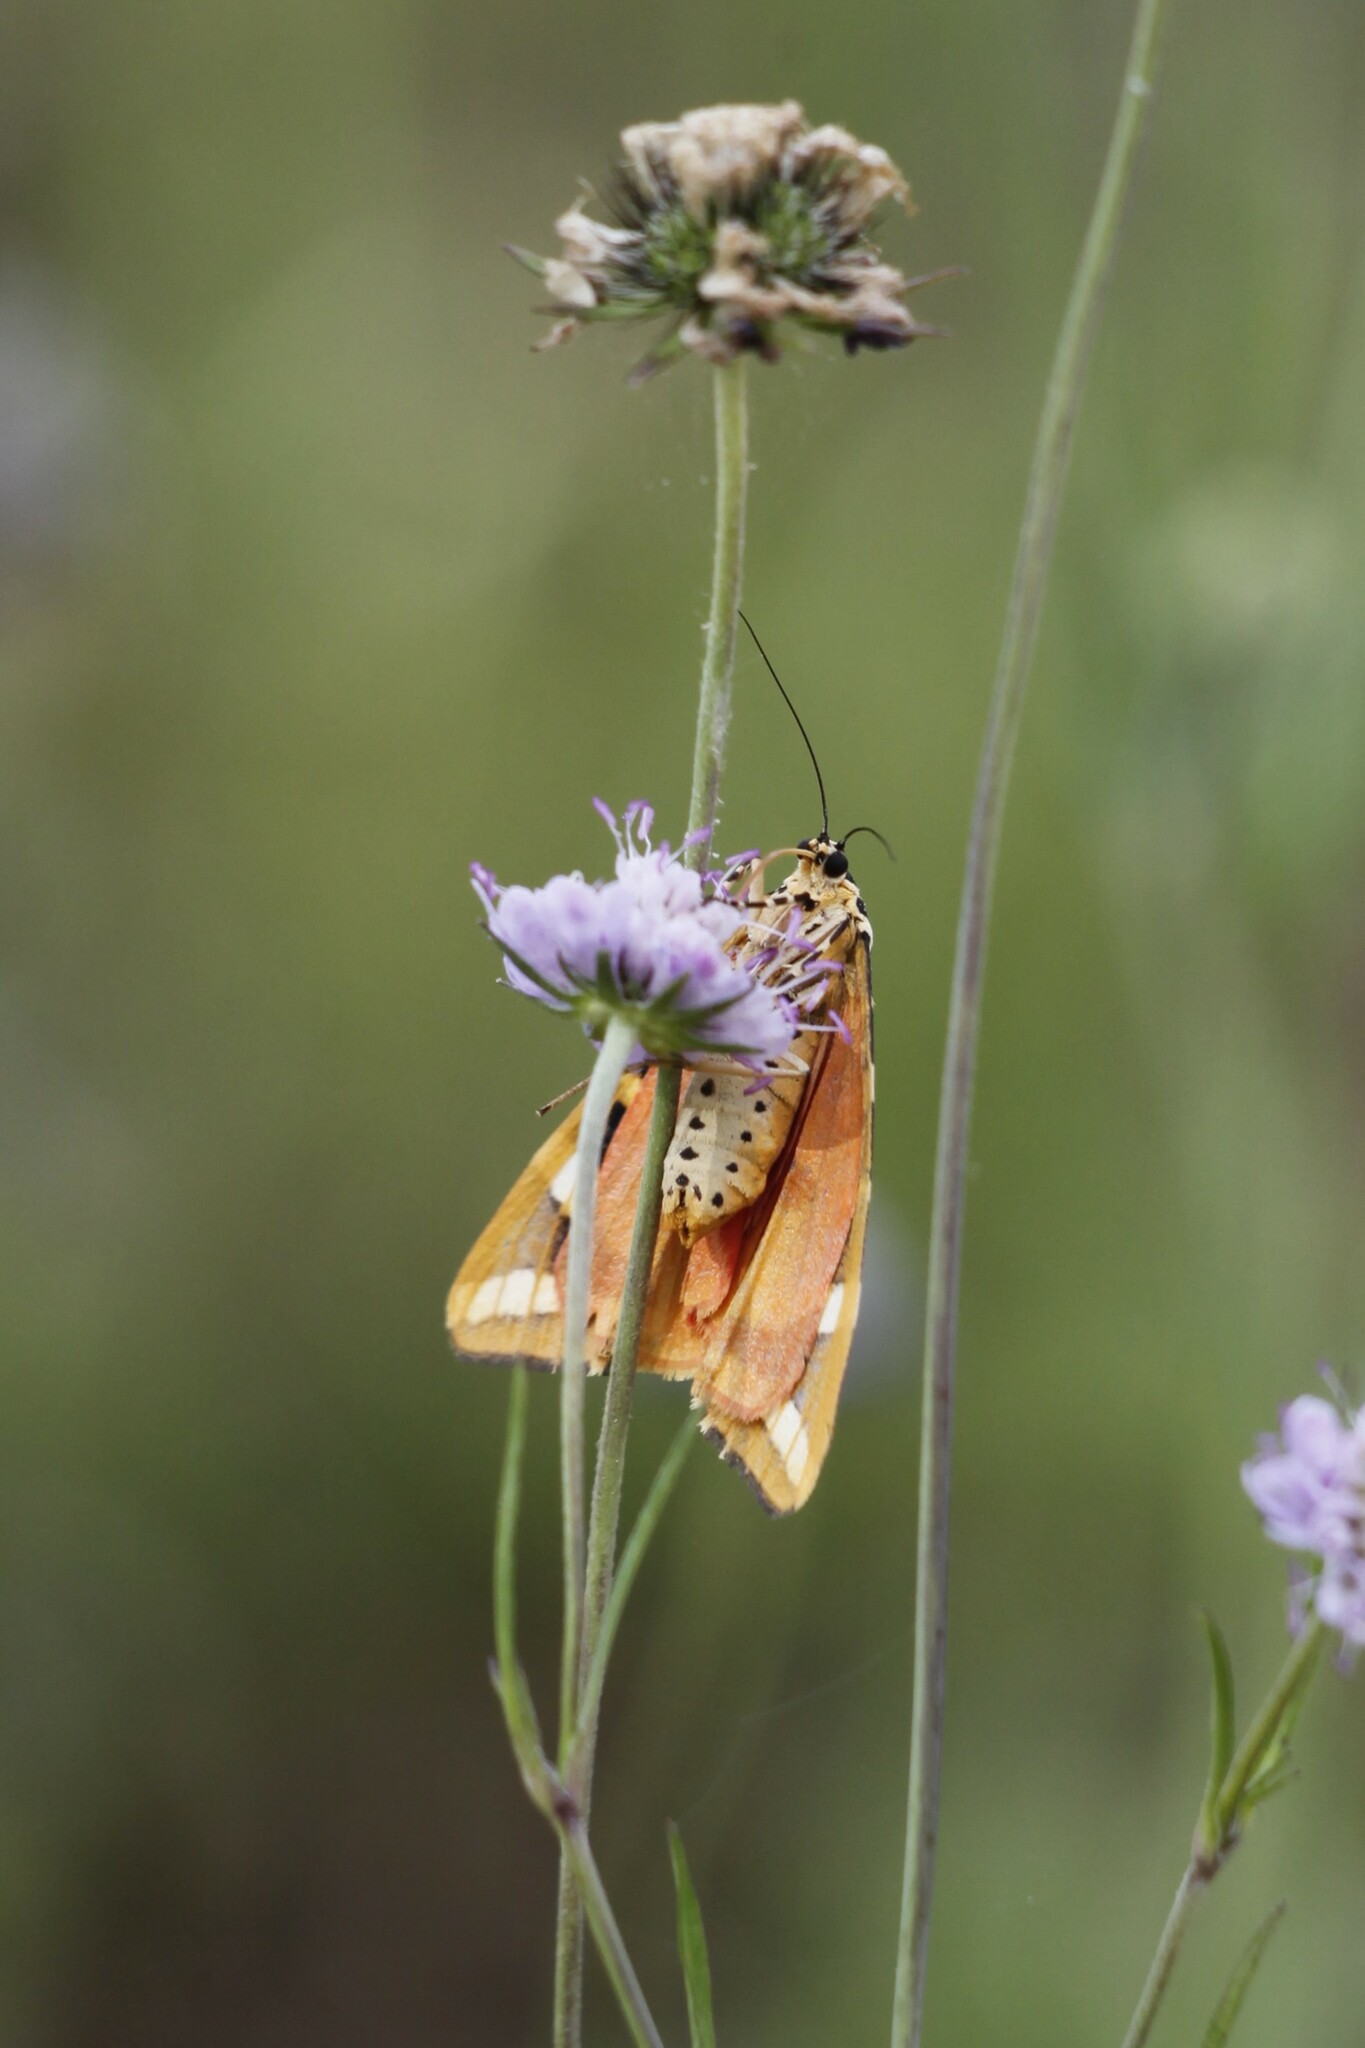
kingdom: Animalia
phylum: Arthropoda
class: Insecta
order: Lepidoptera
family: Erebidae
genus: Euplagia
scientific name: Euplagia quadripunctaria
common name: Jersey tiger
